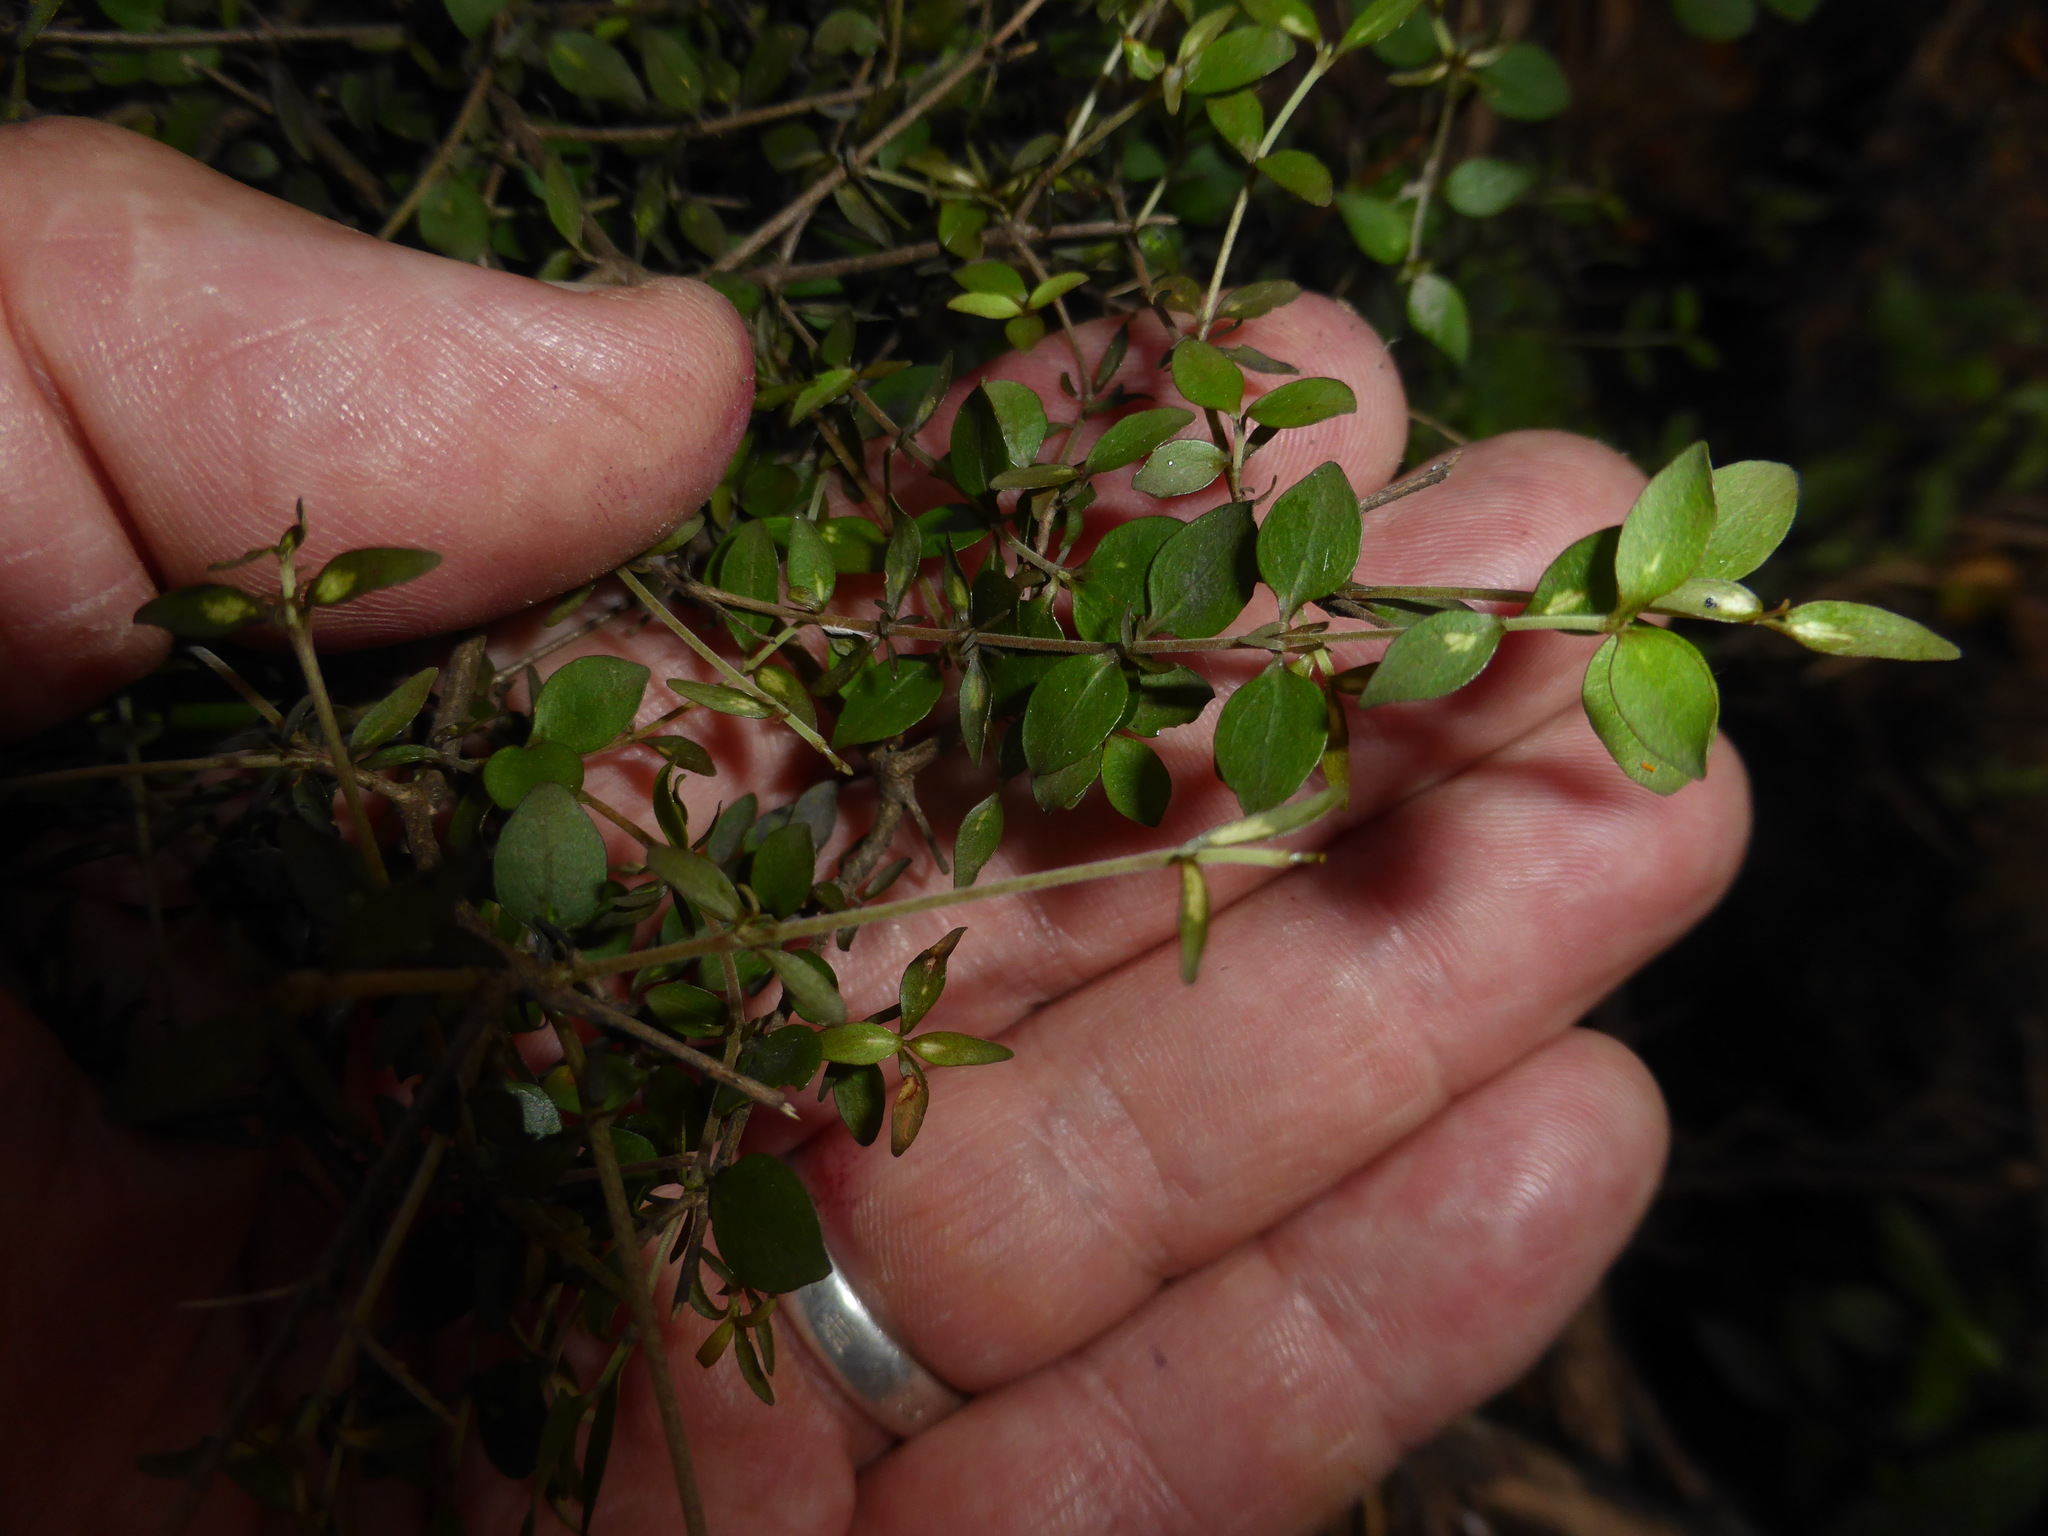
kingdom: Plantae
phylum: Tracheophyta
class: Magnoliopsida
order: Gentianales
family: Rubiaceae
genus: Coprosma
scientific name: Coprosma rhamnoides
